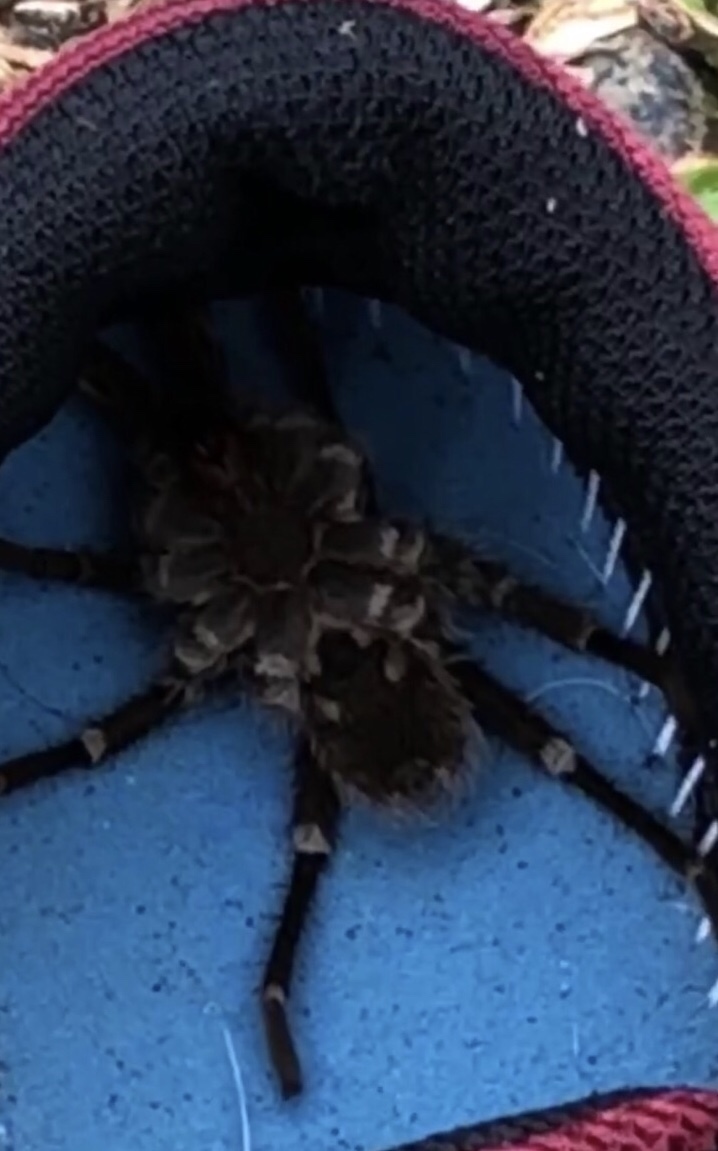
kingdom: Animalia
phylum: Arthropoda
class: Arachnida
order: Araneae
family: Theraphosidae
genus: Cyrtopholis
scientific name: Cyrtopholis portoricae
